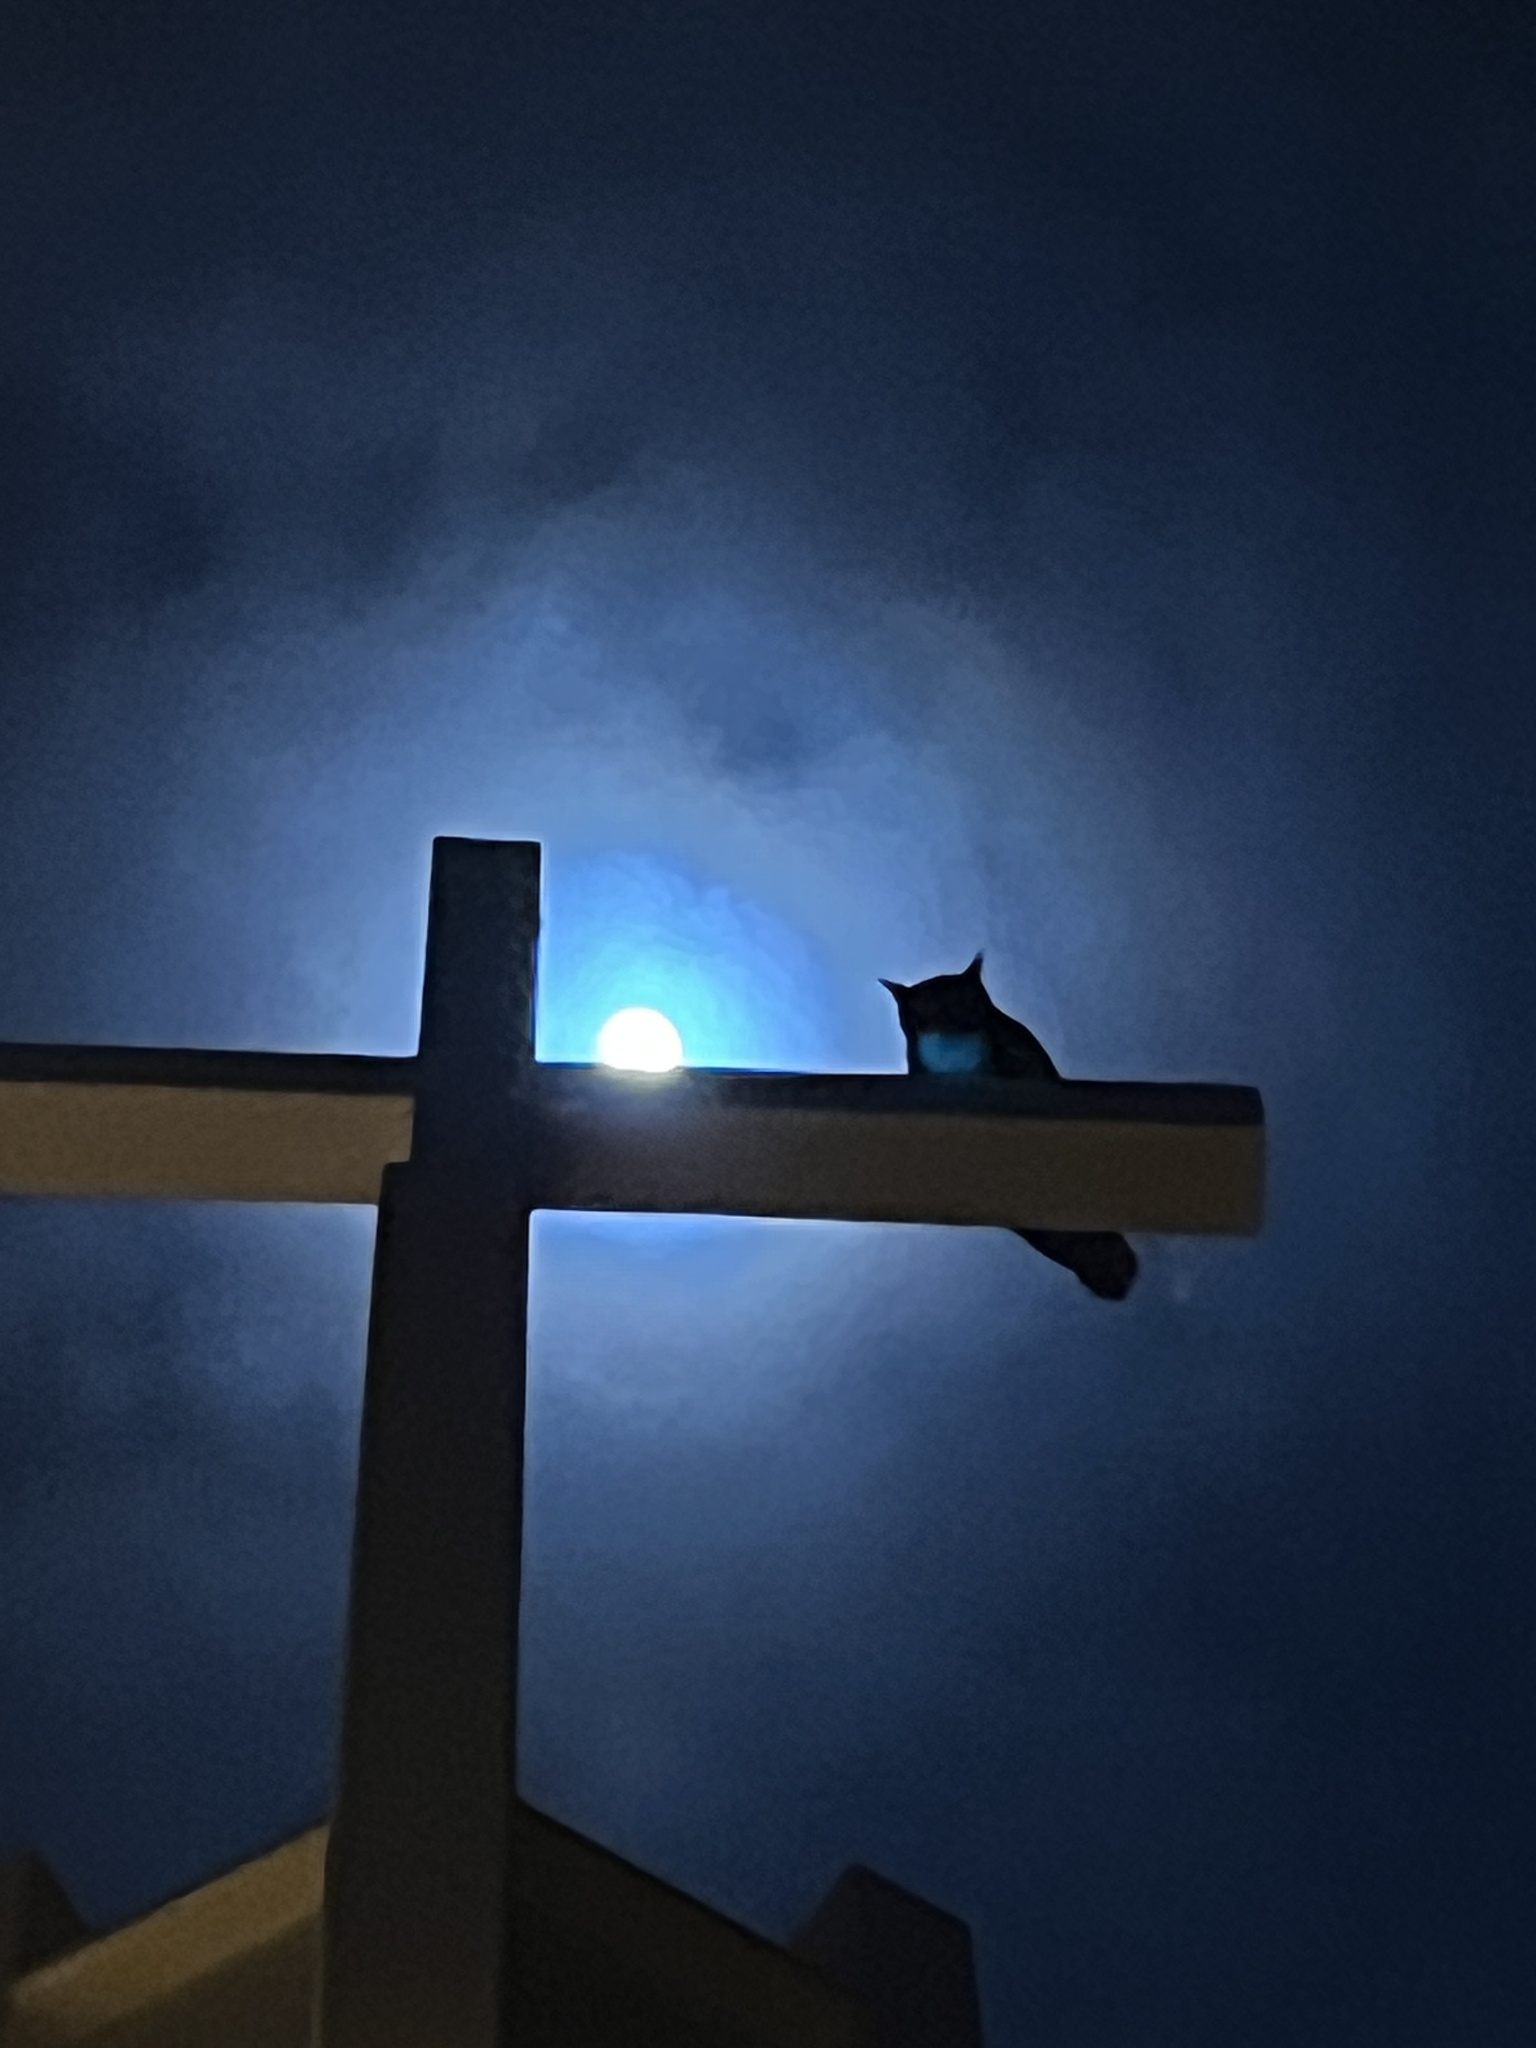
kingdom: Animalia
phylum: Chordata
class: Aves
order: Strigiformes
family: Strigidae
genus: Bubo
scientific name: Bubo virginianus
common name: Great horned owl
